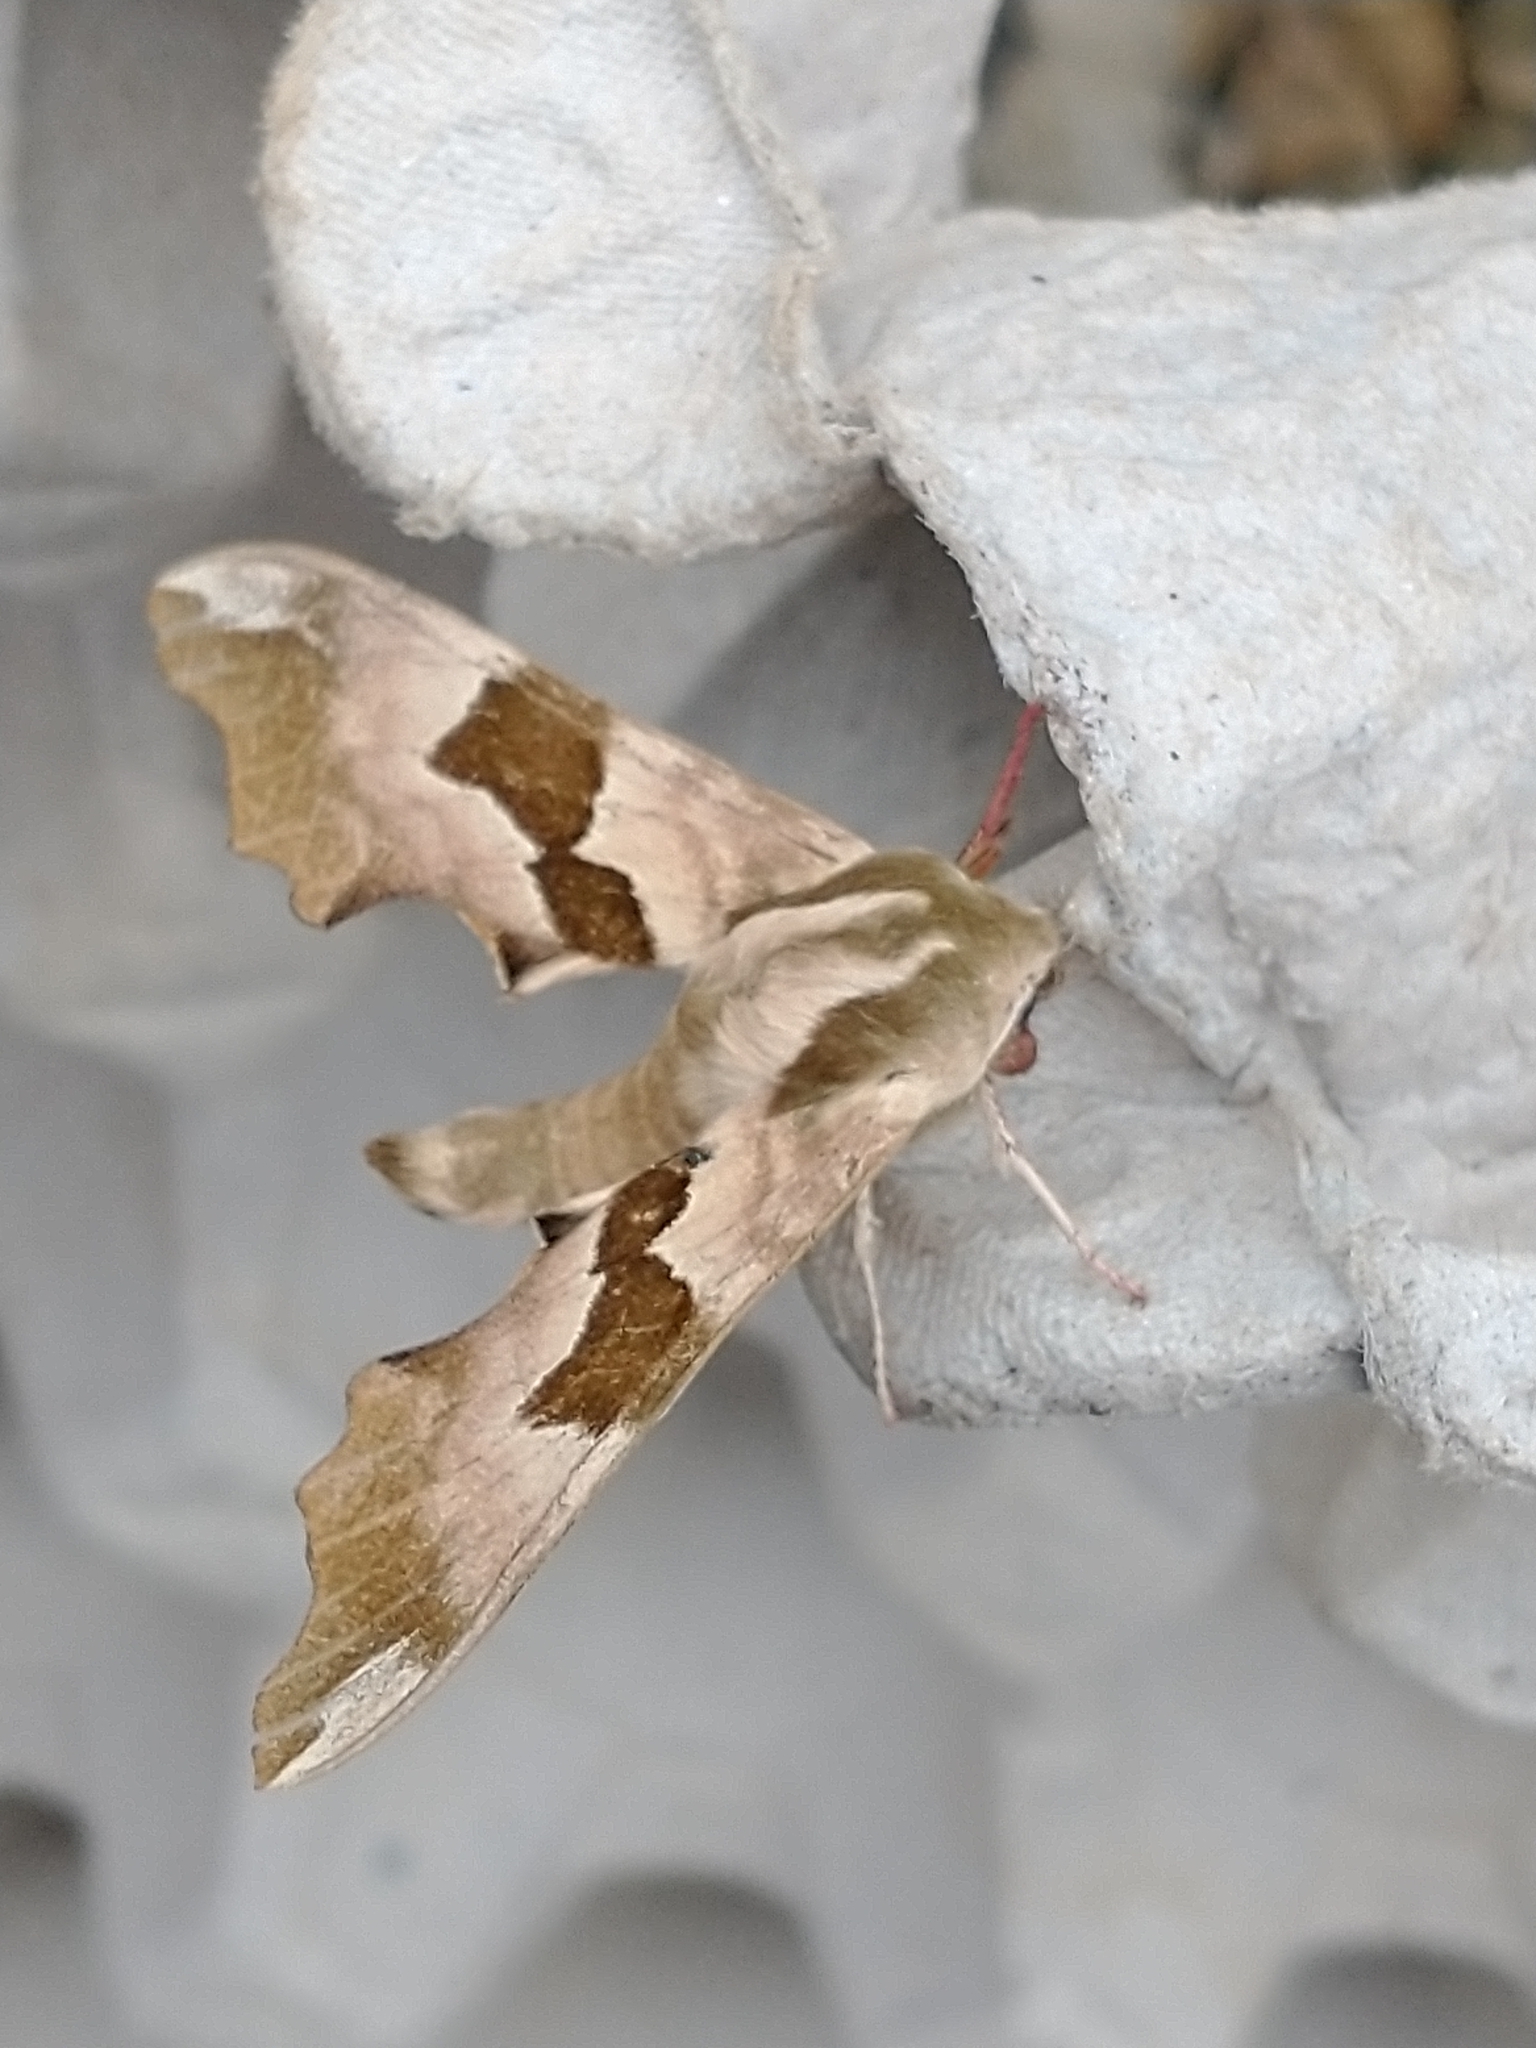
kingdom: Animalia
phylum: Arthropoda
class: Insecta
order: Lepidoptera
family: Sphingidae
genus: Mimas
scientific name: Mimas tiliae
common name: Lime hawk-moth
